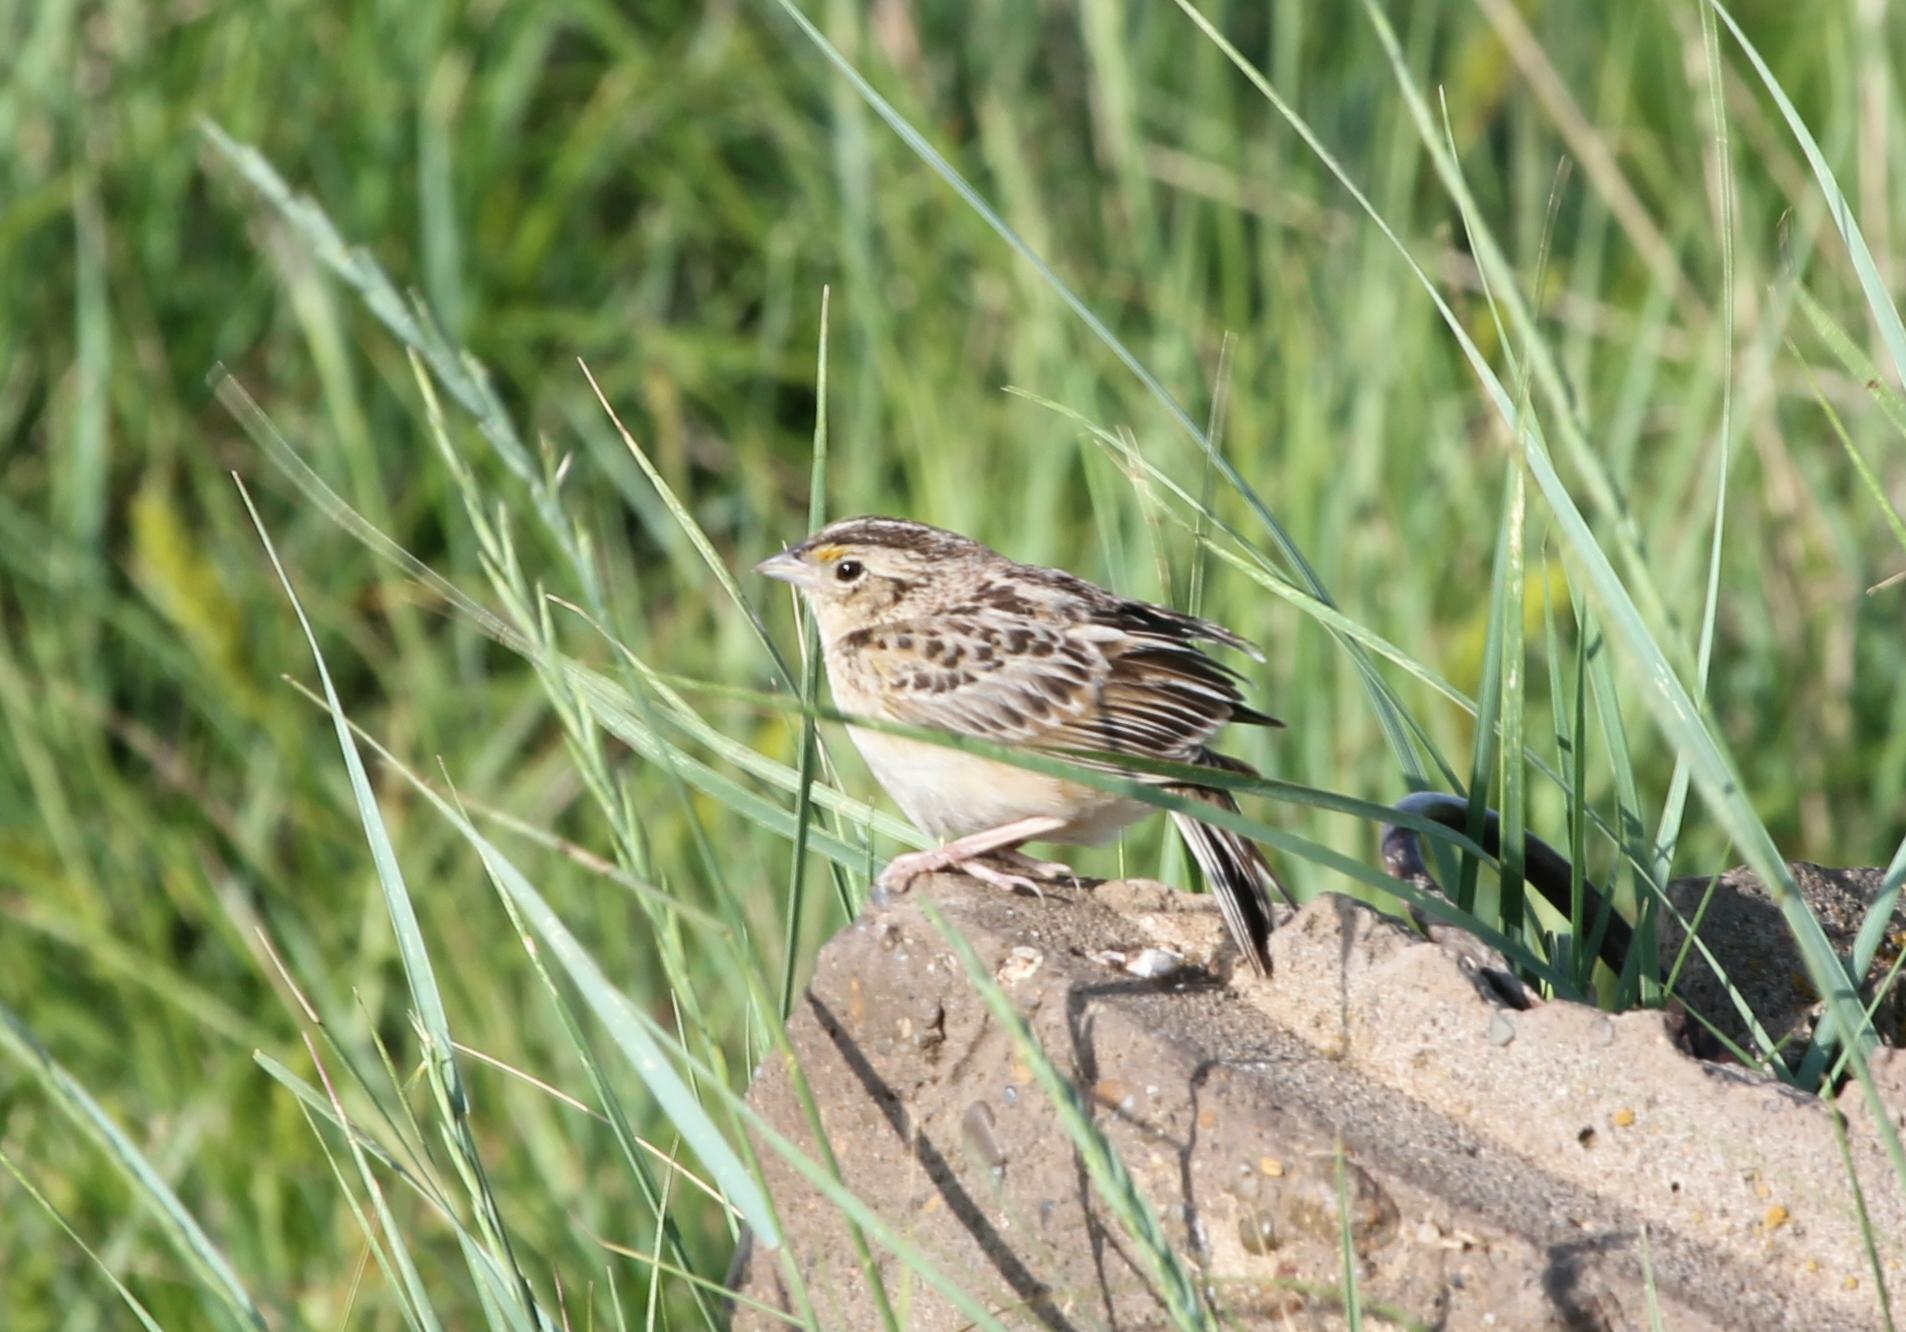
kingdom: Animalia
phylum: Chordata
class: Aves
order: Passeriformes
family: Passerellidae
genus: Ammodramus
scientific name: Ammodramus savannarum
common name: Grasshopper sparrow
